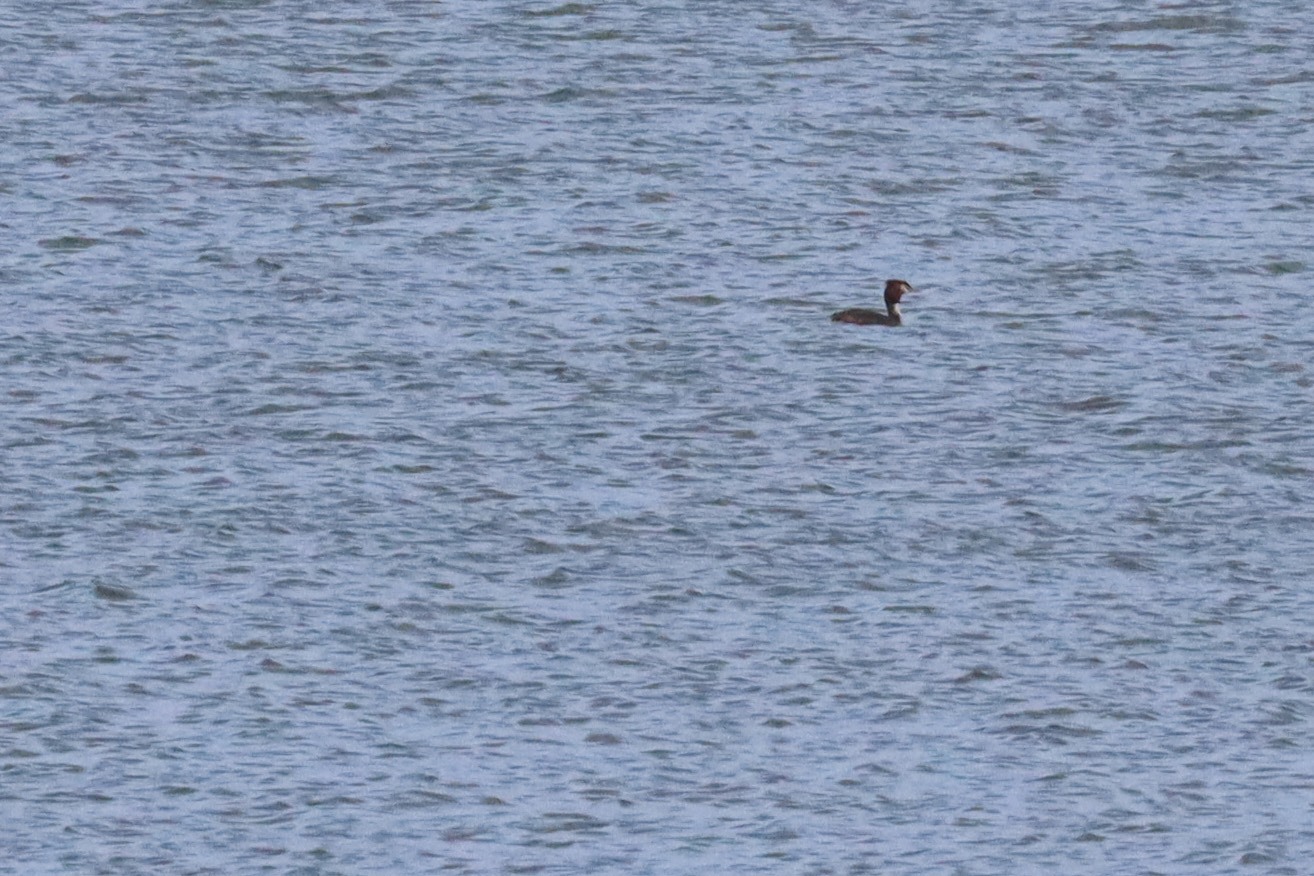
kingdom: Animalia
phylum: Chordata
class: Aves
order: Podicipediformes
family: Podicipedidae
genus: Podiceps
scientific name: Podiceps cristatus
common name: Great crested grebe
